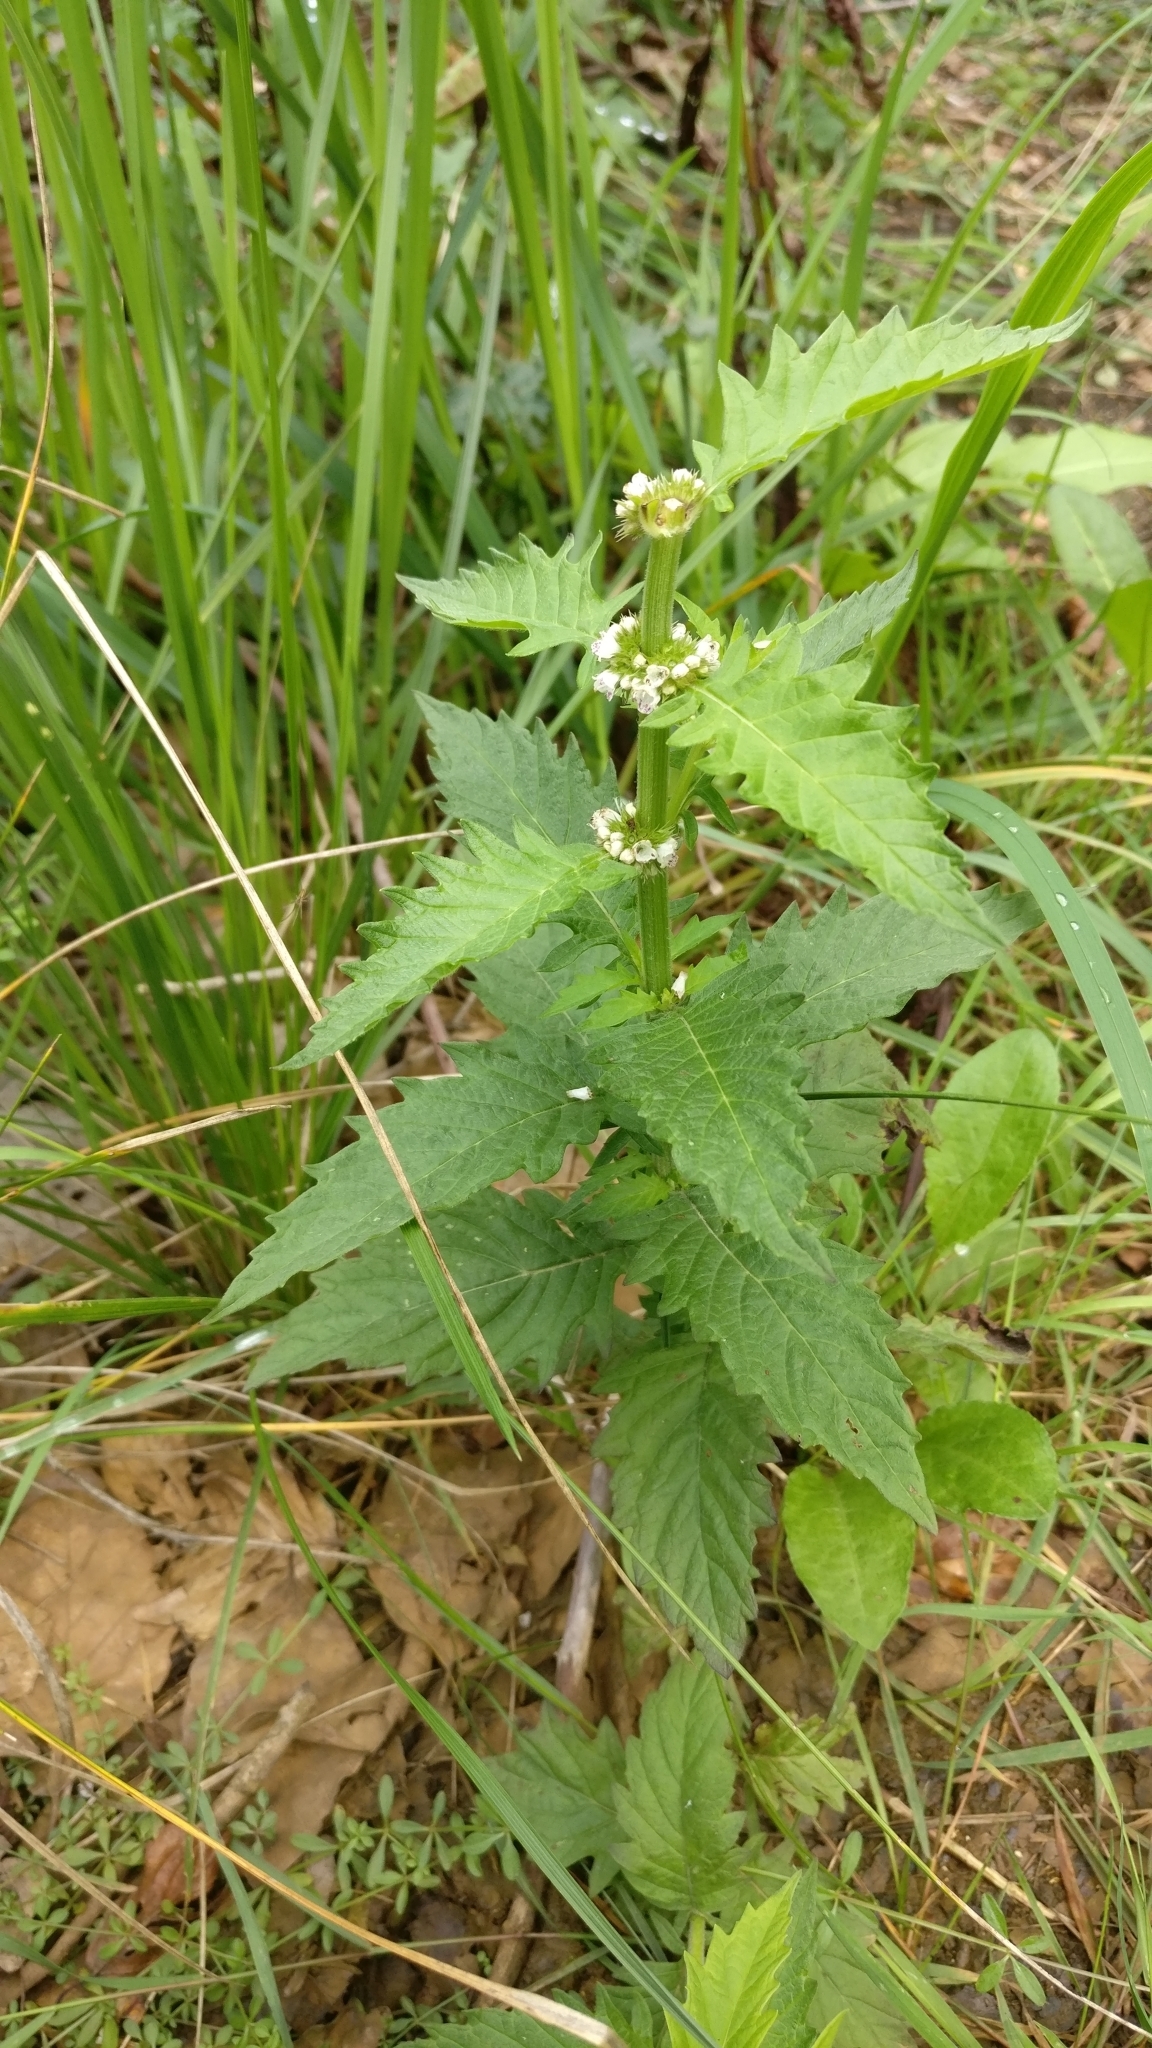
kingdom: Plantae
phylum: Tracheophyta
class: Magnoliopsida
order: Lamiales
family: Lamiaceae
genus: Lycopus
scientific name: Lycopus europaeus
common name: European bugleweed
